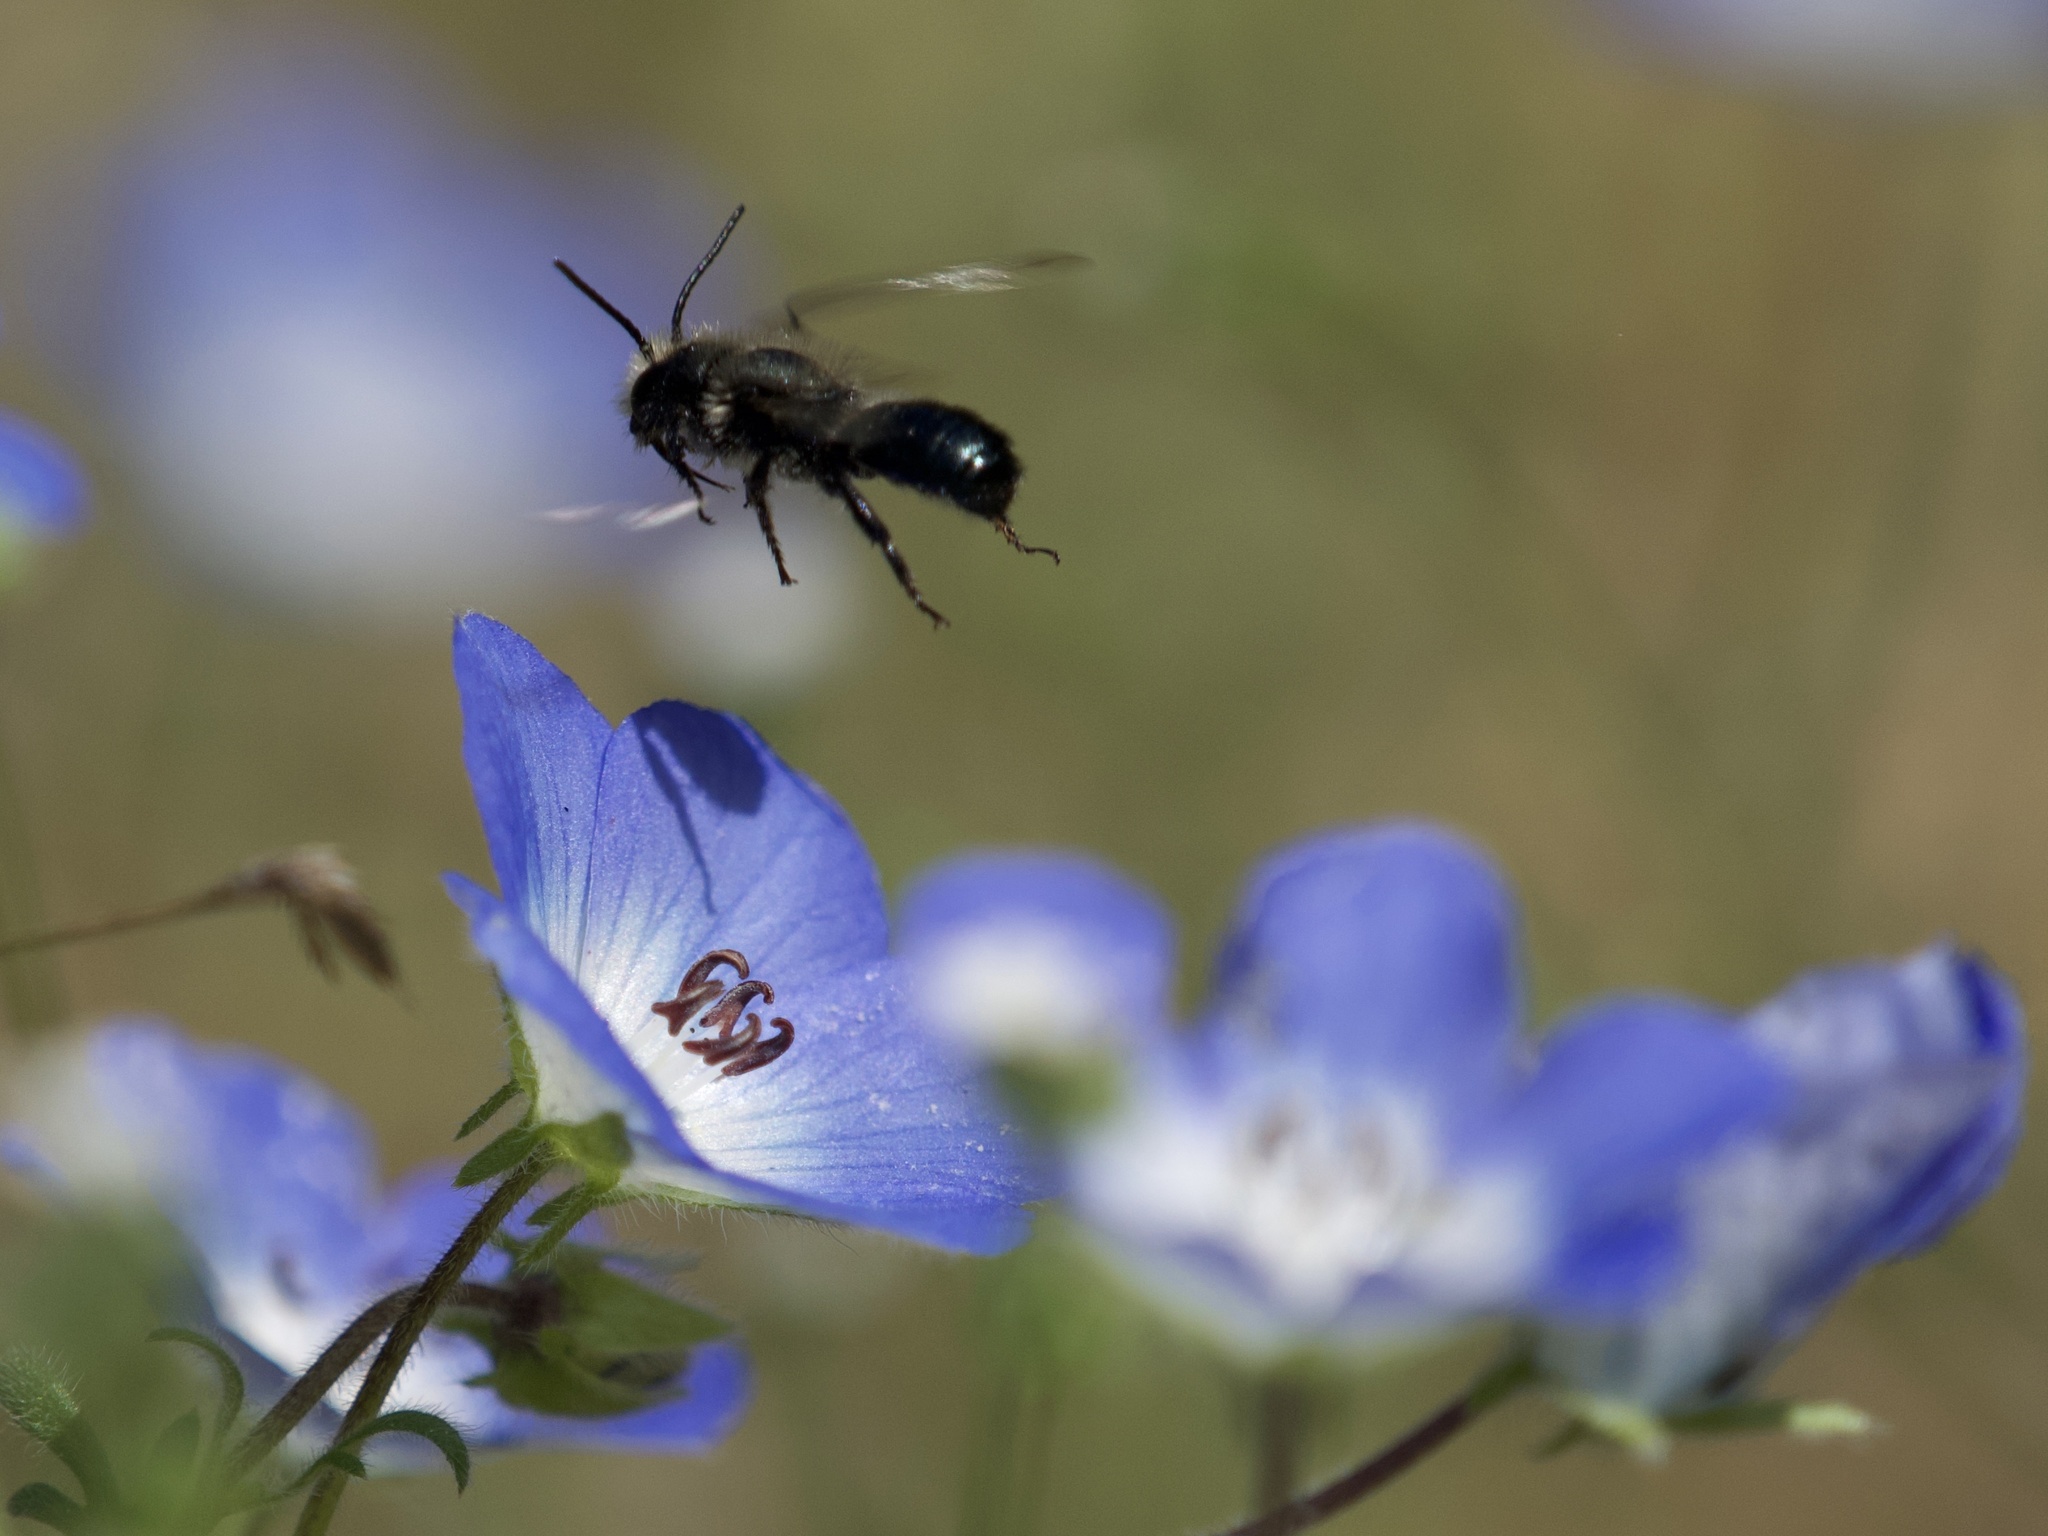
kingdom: Plantae
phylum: Tracheophyta
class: Magnoliopsida
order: Boraginales
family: Hydrophyllaceae
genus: Nemophila
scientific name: Nemophila menziesii
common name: Baby's-blue-eyes
